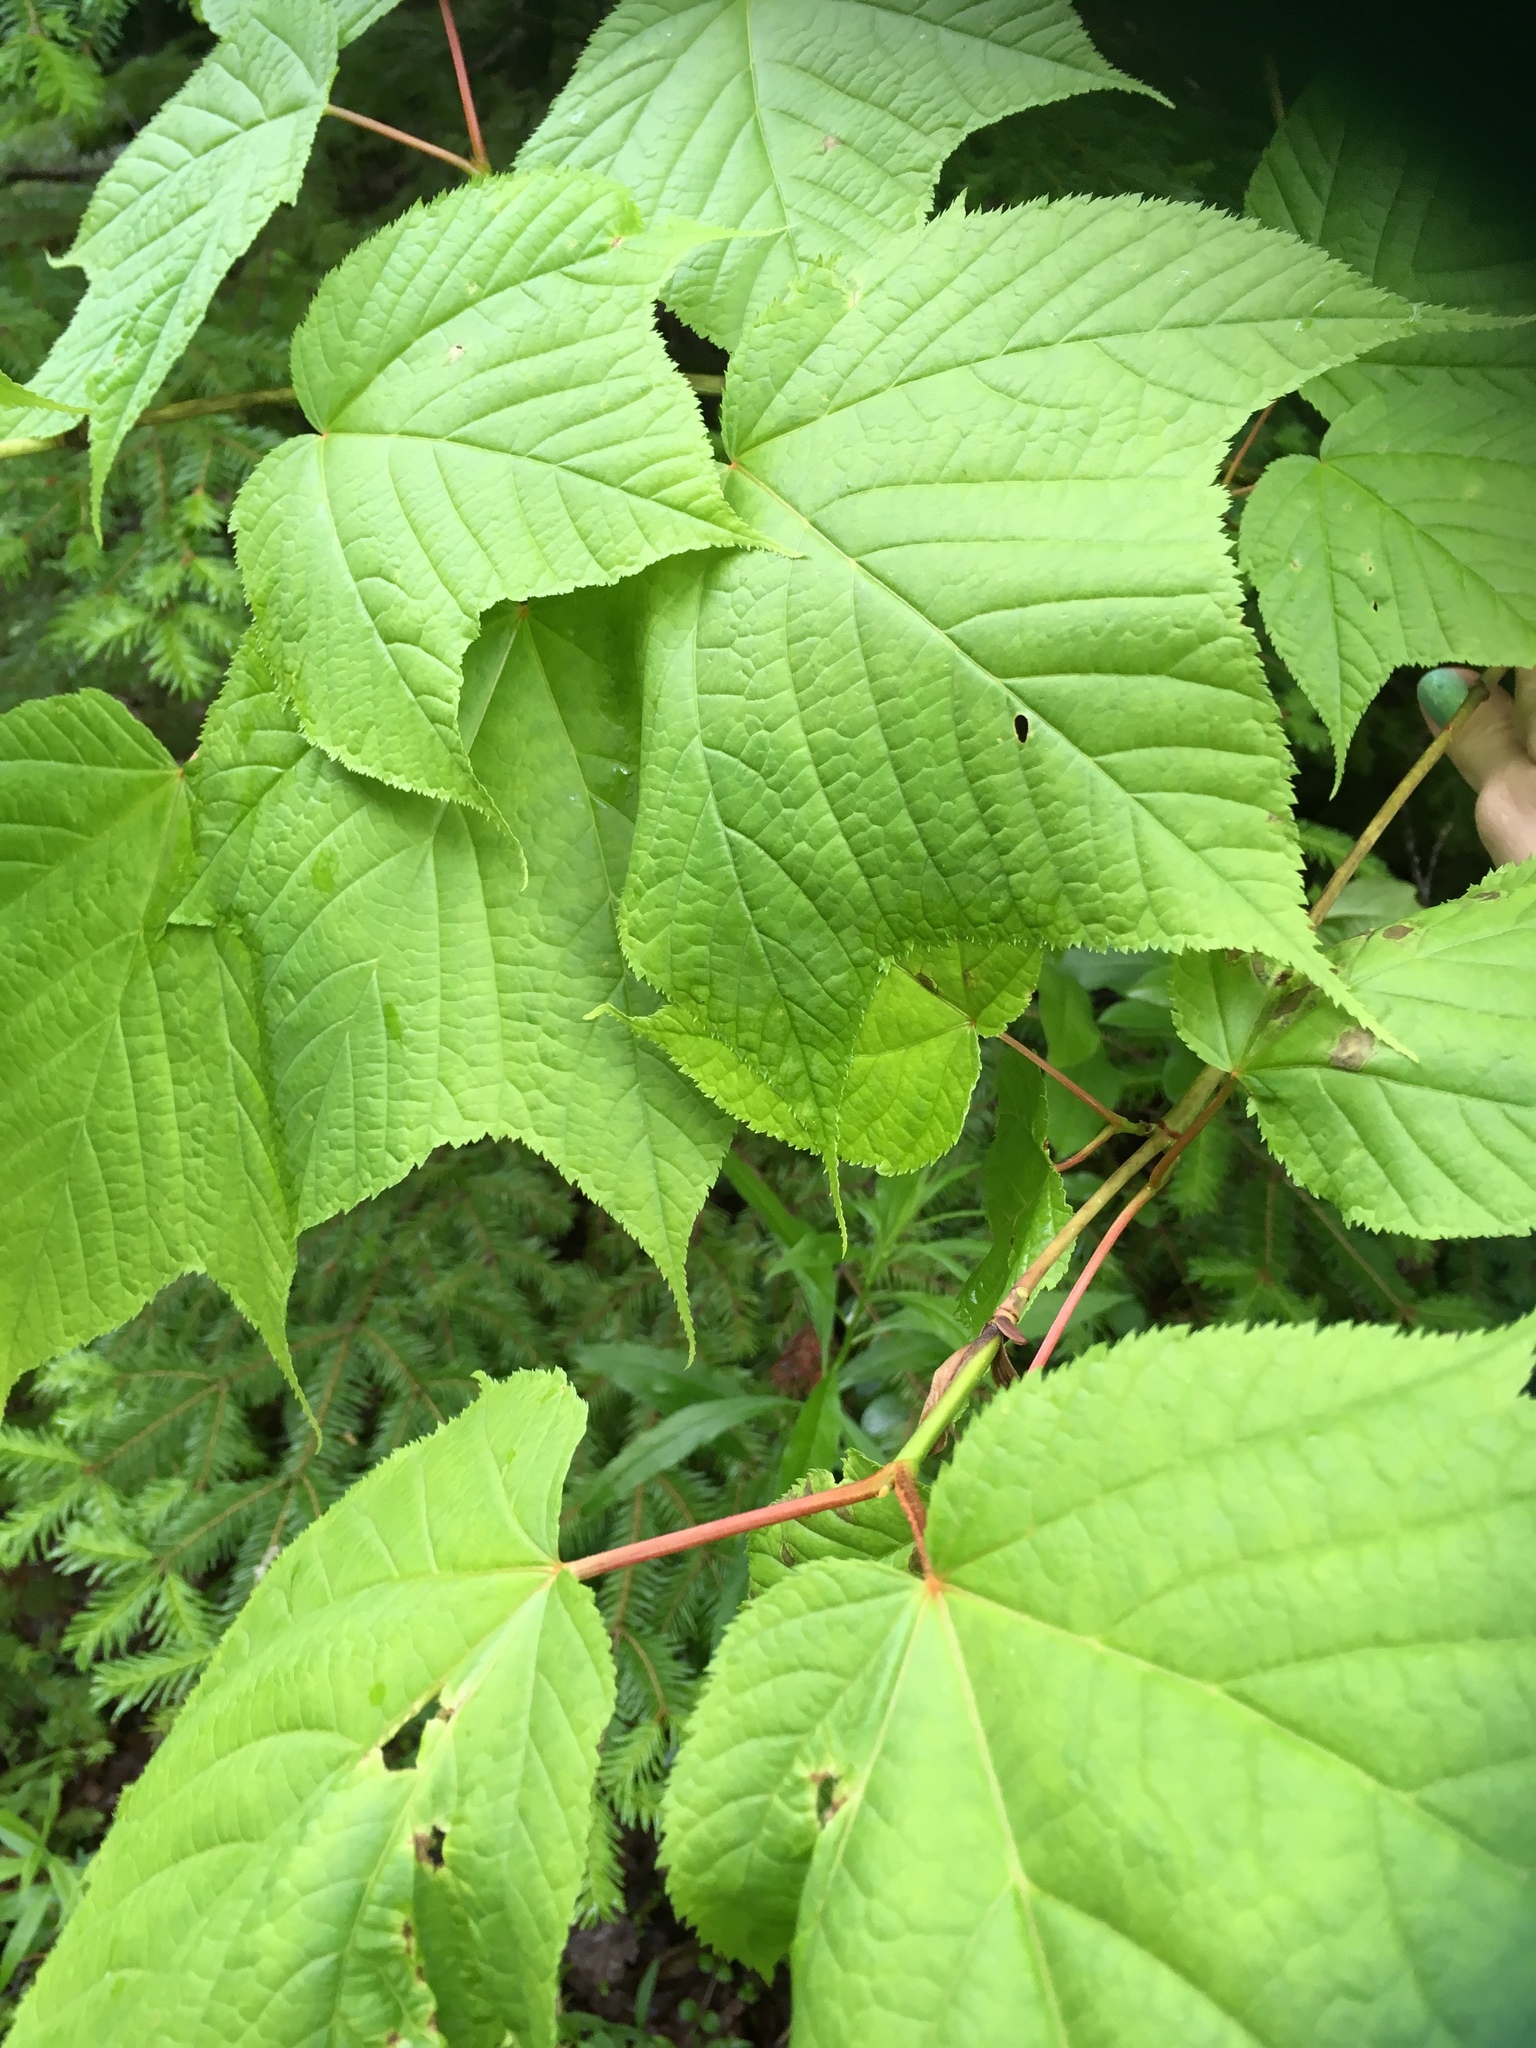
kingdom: Plantae
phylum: Tracheophyta
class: Magnoliopsida
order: Sapindales
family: Sapindaceae
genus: Acer
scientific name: Acer pensylvanicum
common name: Moosewood
